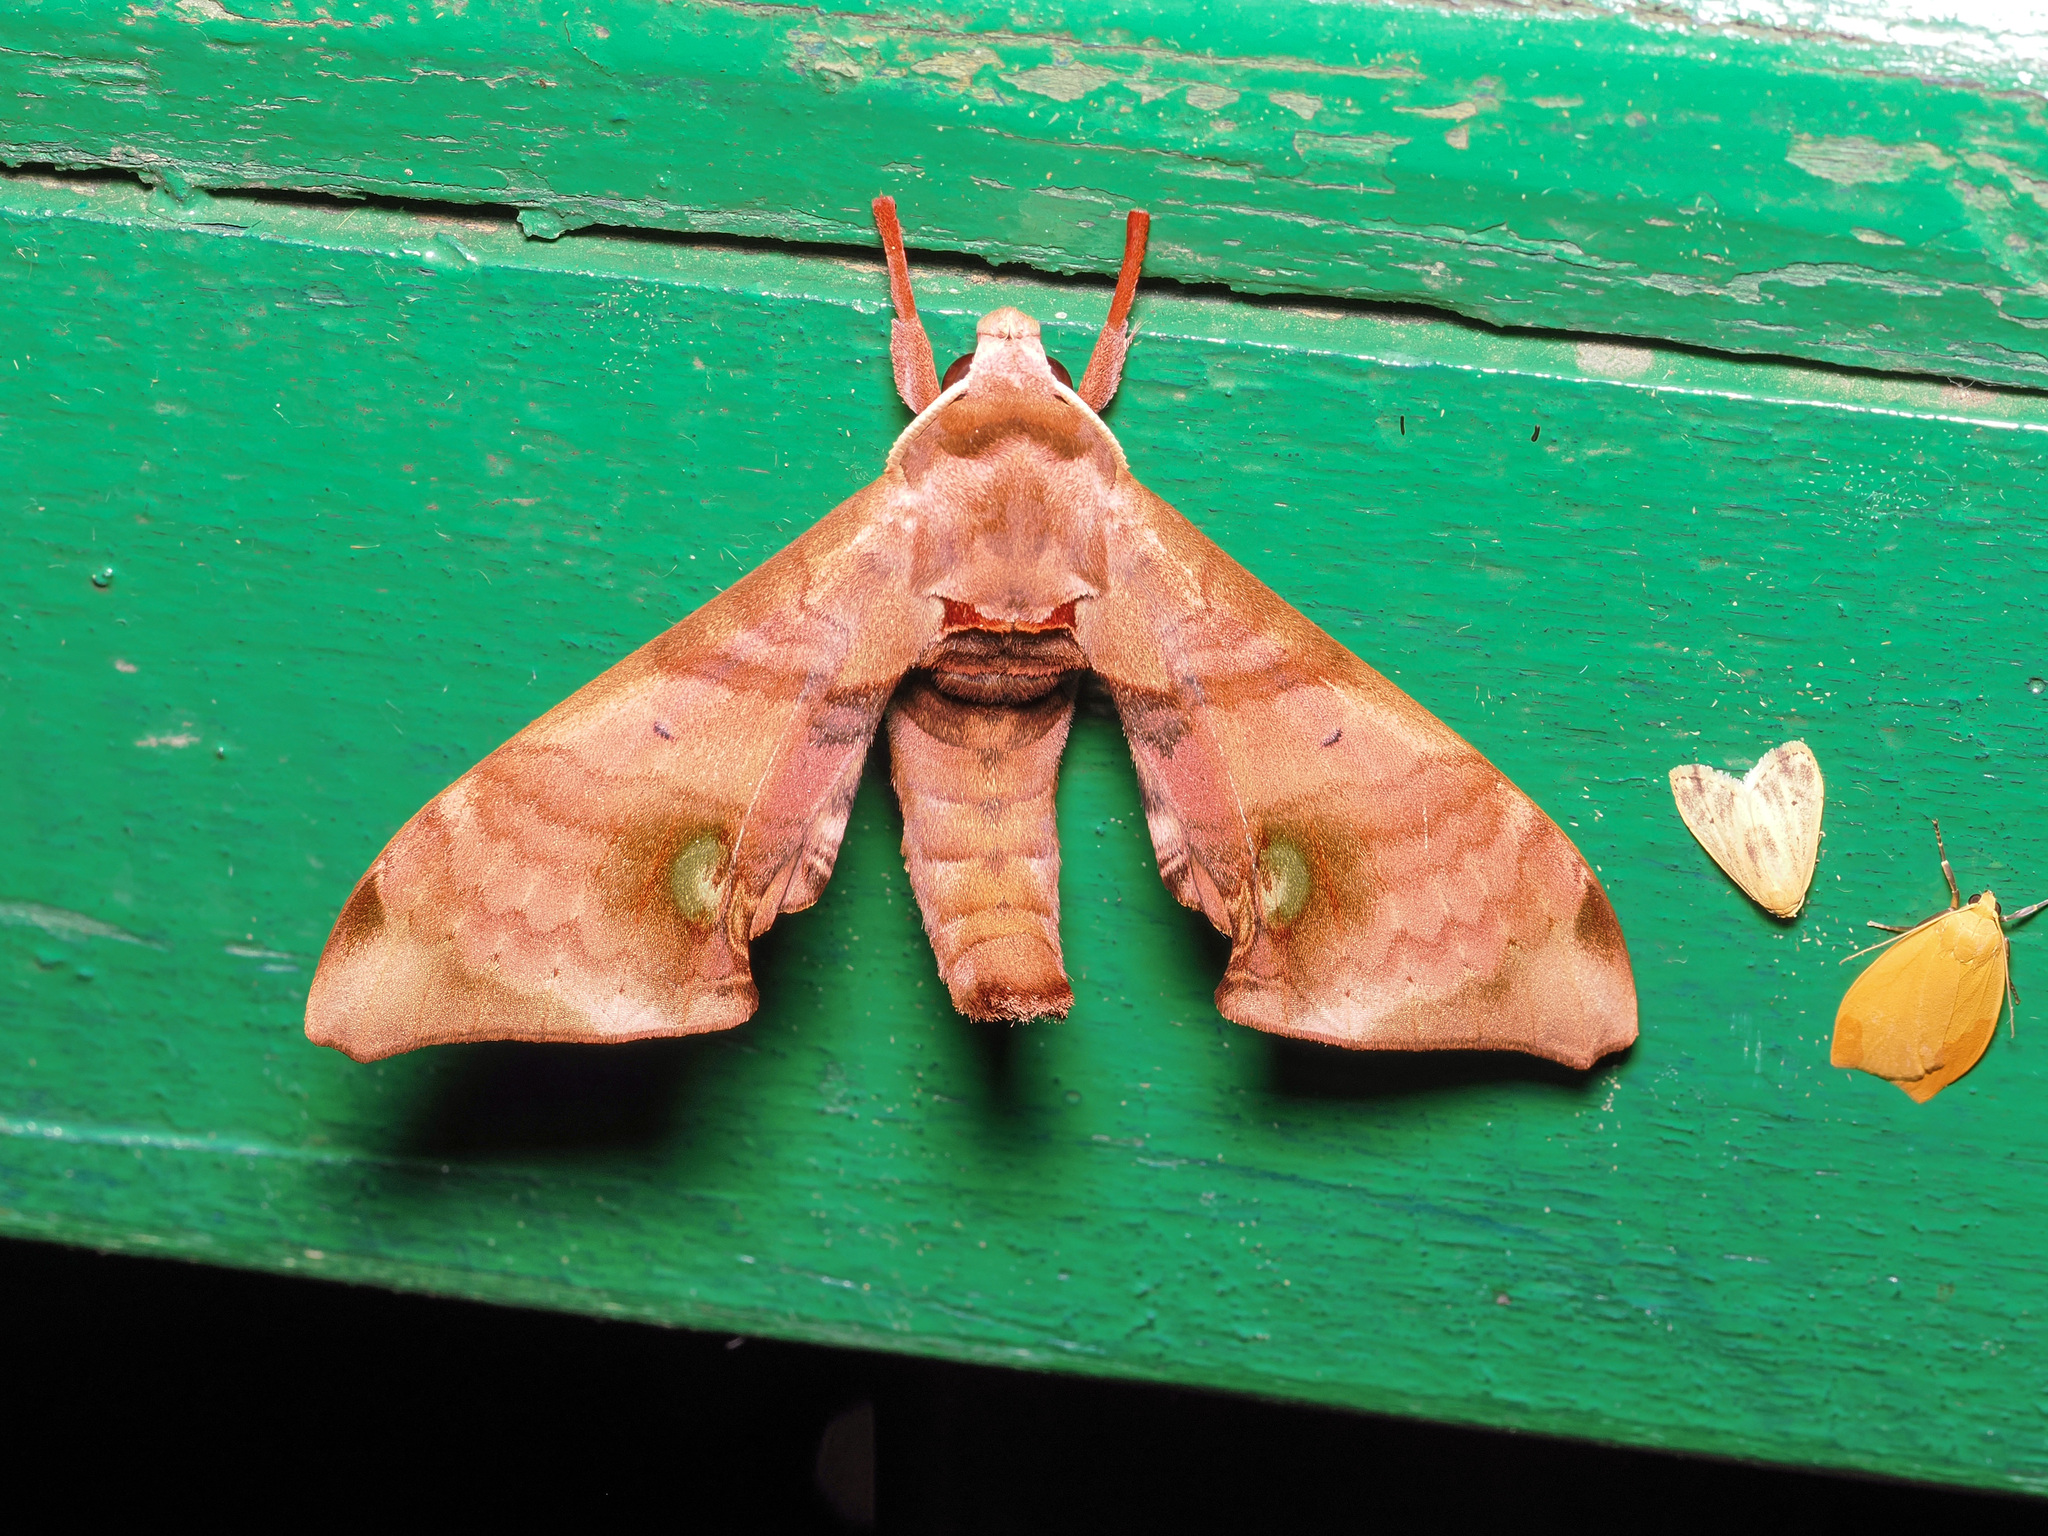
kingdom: Animalia
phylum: Arthropoda
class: Insecta
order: Lepidoptera
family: Sphingidae
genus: Daphnusa
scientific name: Daphnusa fruhstorferi
